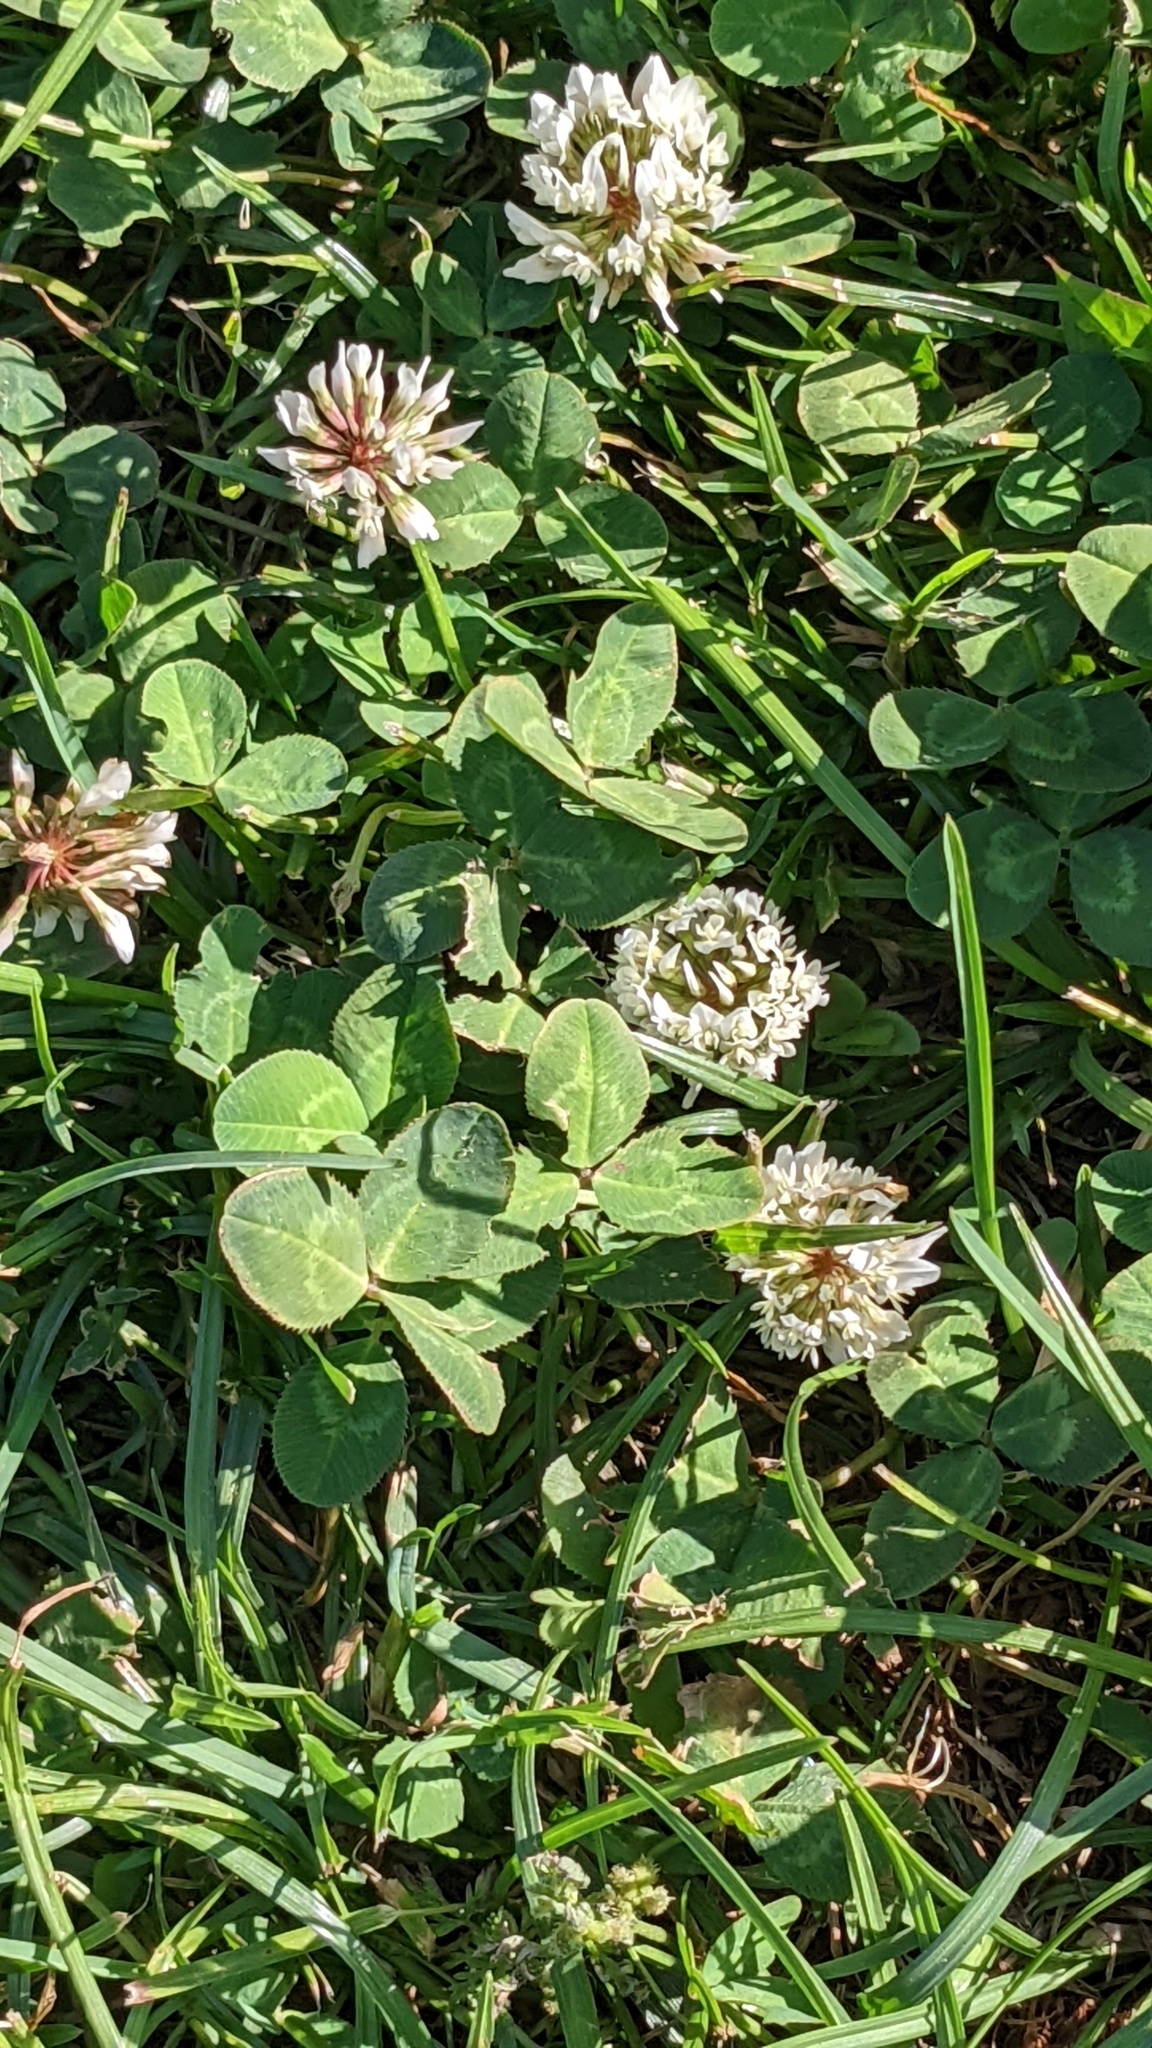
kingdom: Plantae
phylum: Tracheophyta
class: Magnoliopsida
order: Fabales
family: Fabaceae
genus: Trifolium
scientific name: Trifolium repens
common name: White clover
